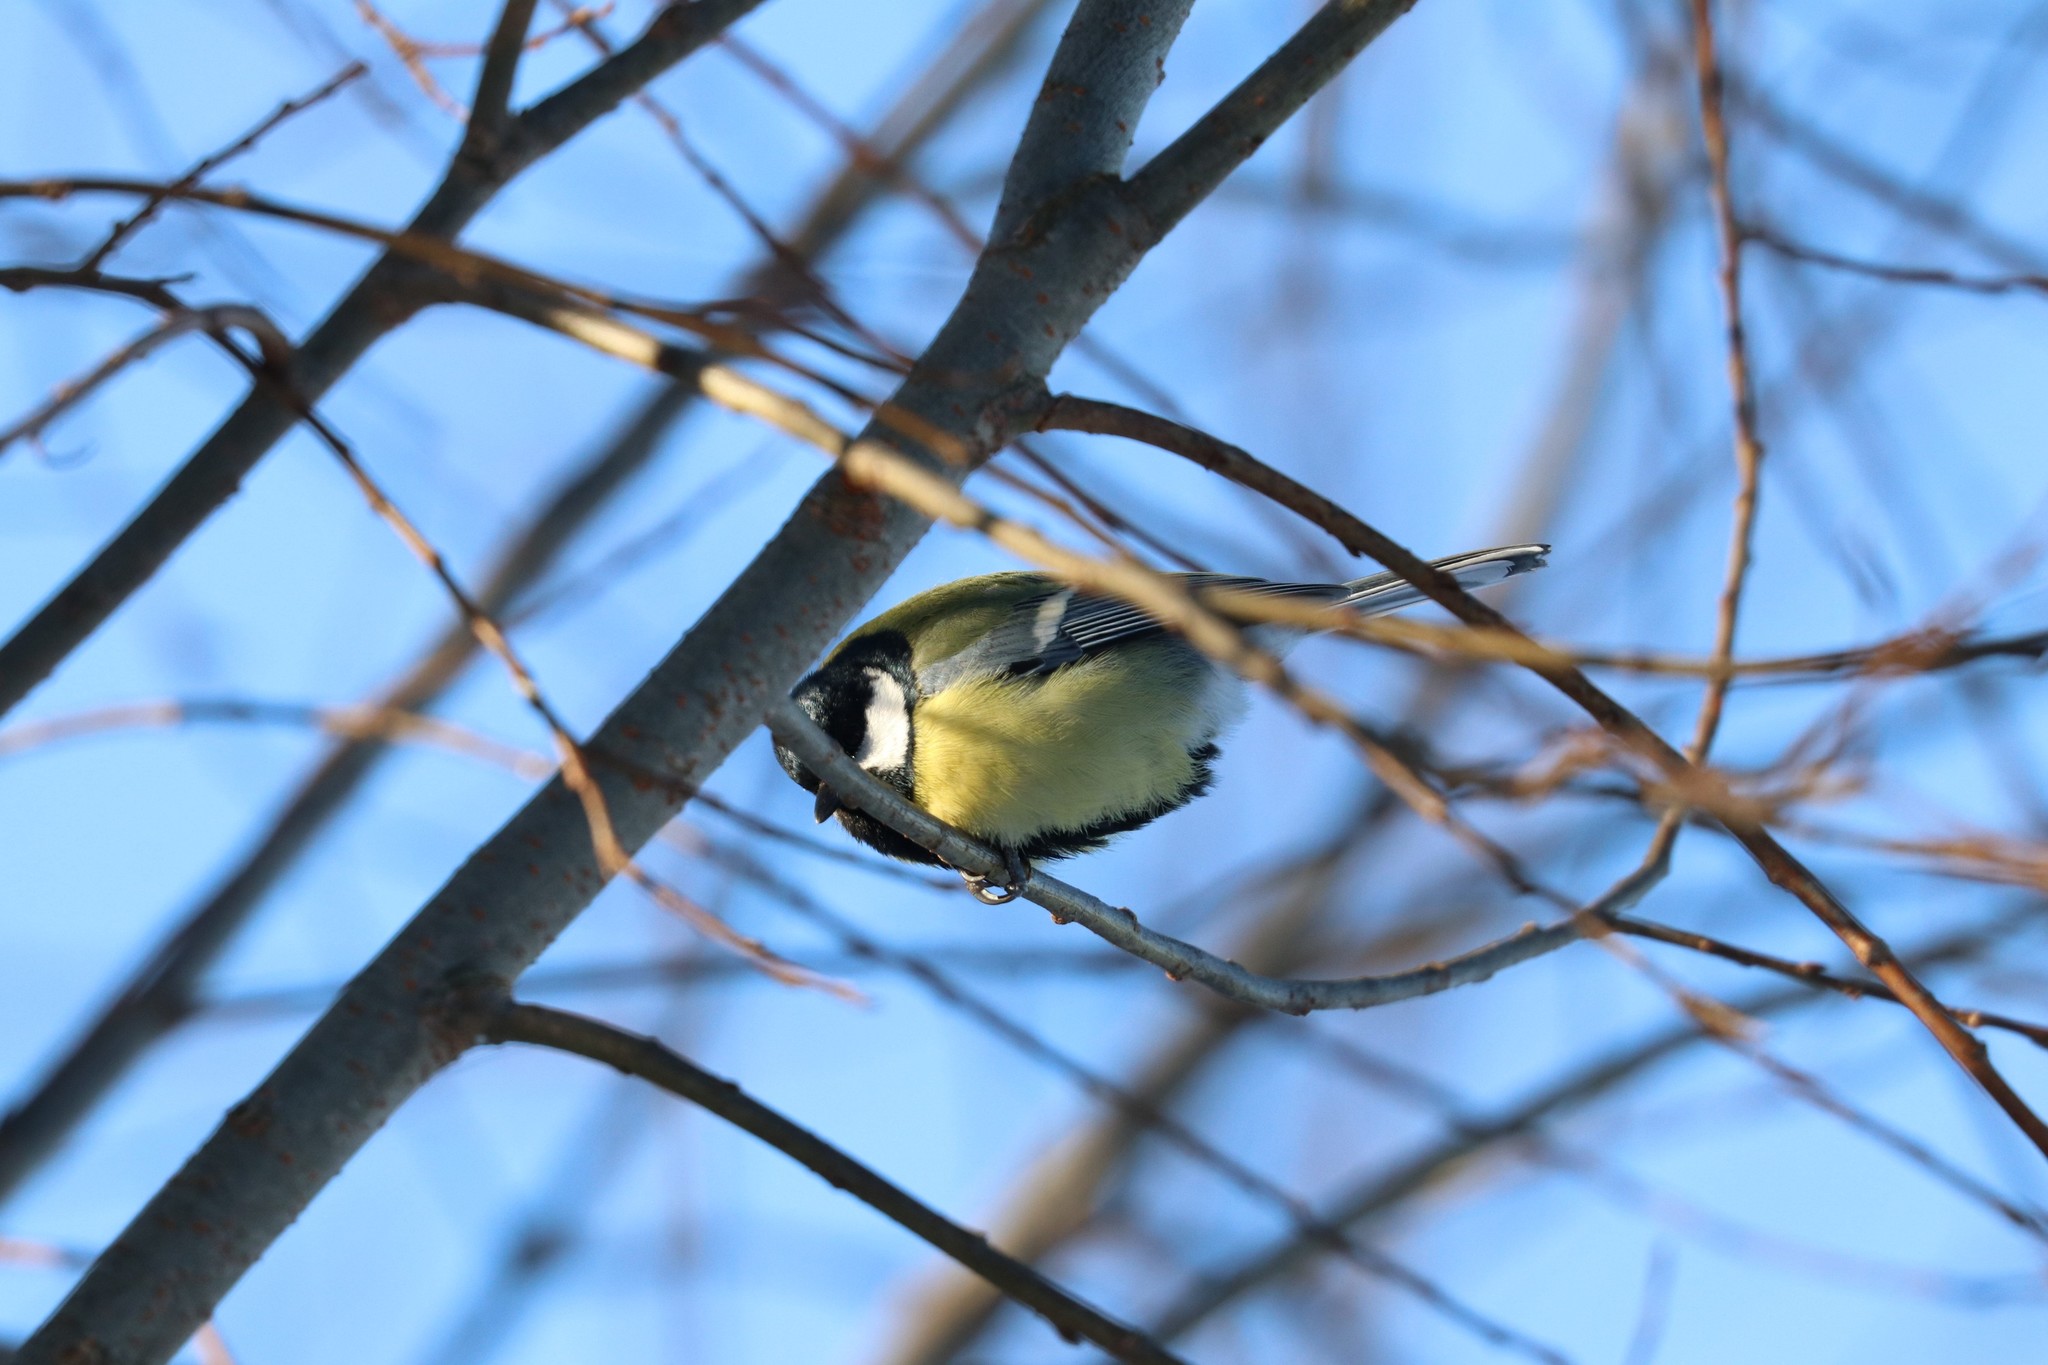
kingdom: Animalia
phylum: Chordata
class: Aves
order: Passeriformes
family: Paridae
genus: Parus
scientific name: Parus major
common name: Great tit
